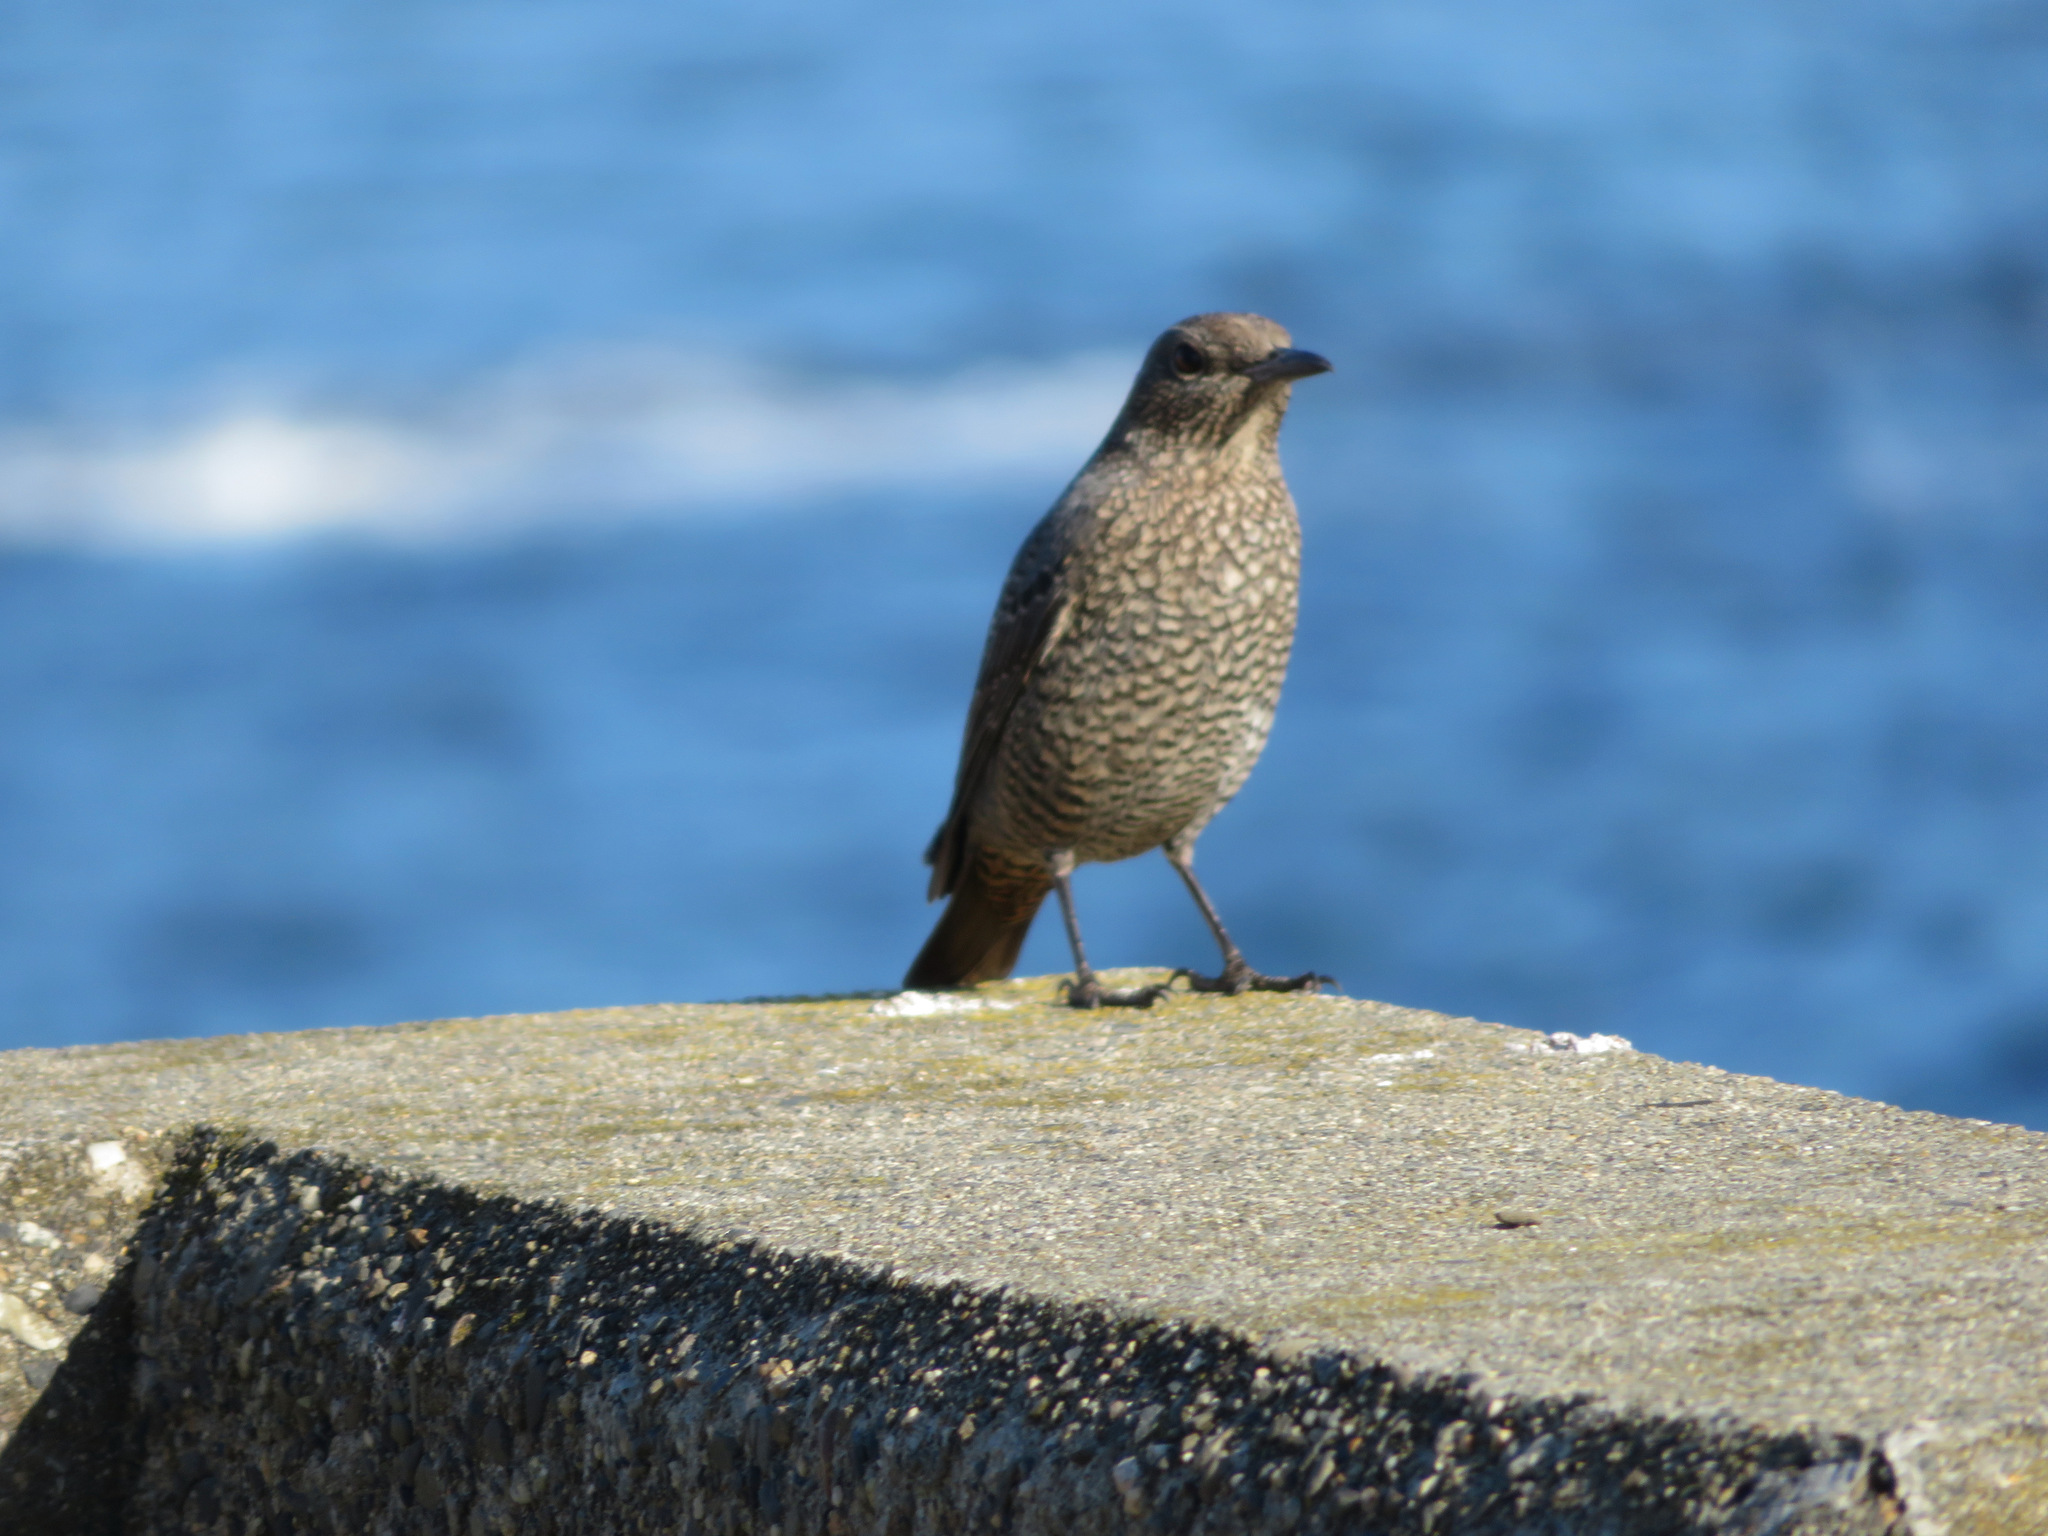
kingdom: Animalia
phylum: Chordata
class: Aves
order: Passeriformes
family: Muscicapidae
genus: Monticola
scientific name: Monticola solitarius
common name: Blue rock thrush
